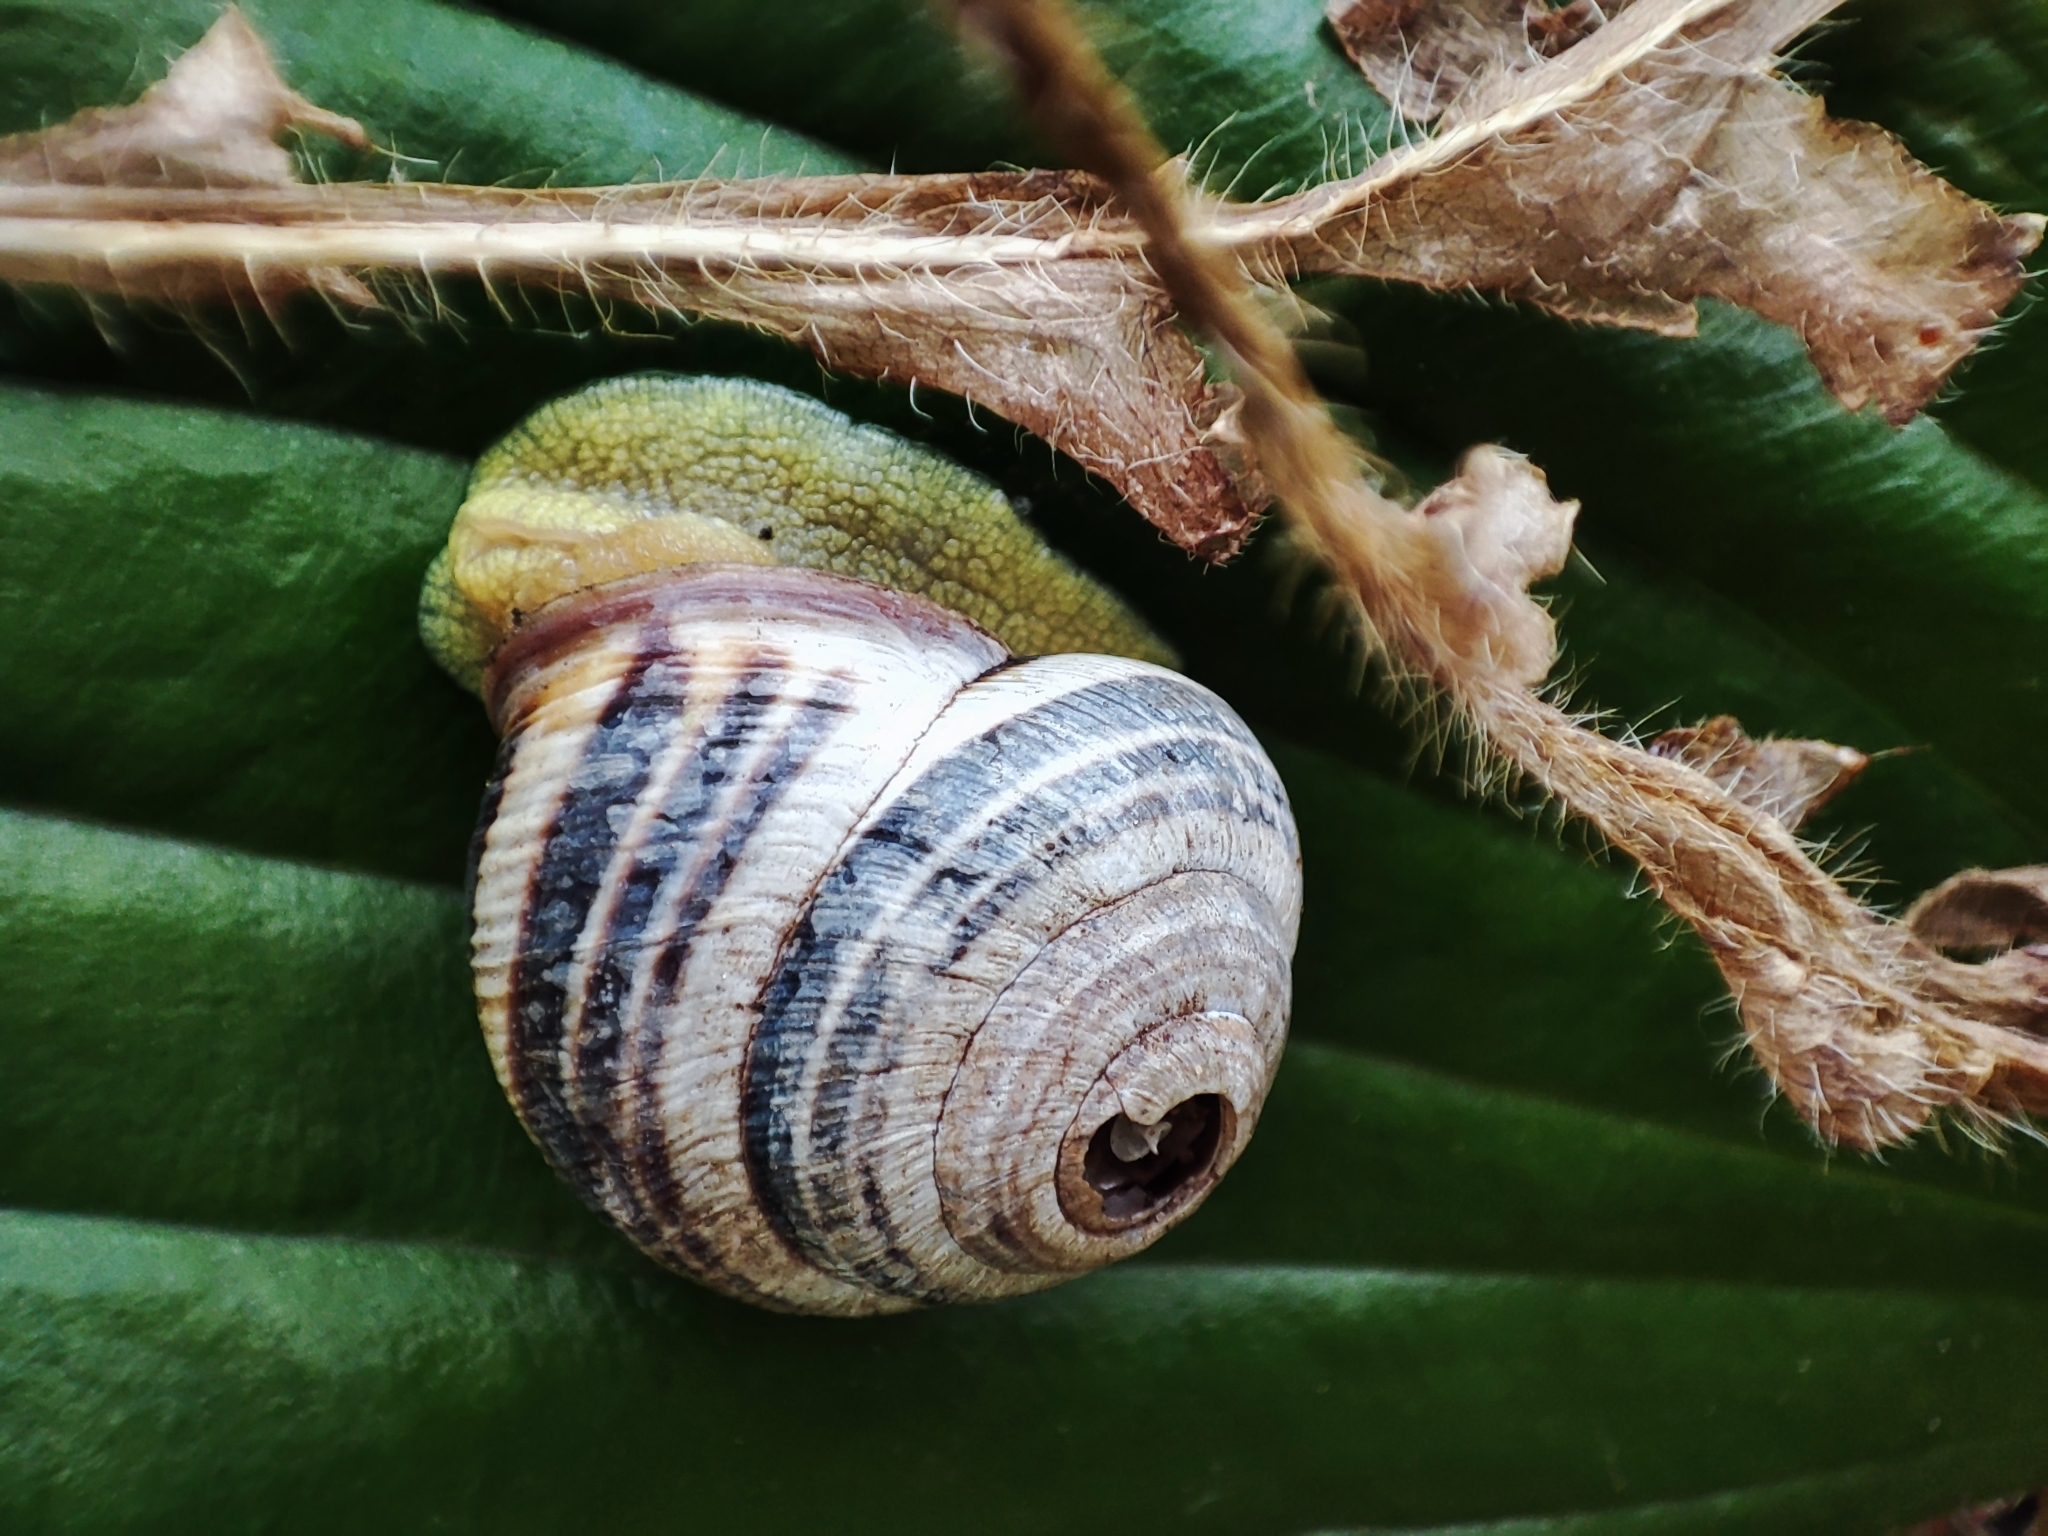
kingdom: Animalia
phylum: Mollusca
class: Gastropoda
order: Stylommatophora
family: Helicidae
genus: Caucasotachea
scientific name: Caucasotachea vindobonensis
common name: European helicid land snail
